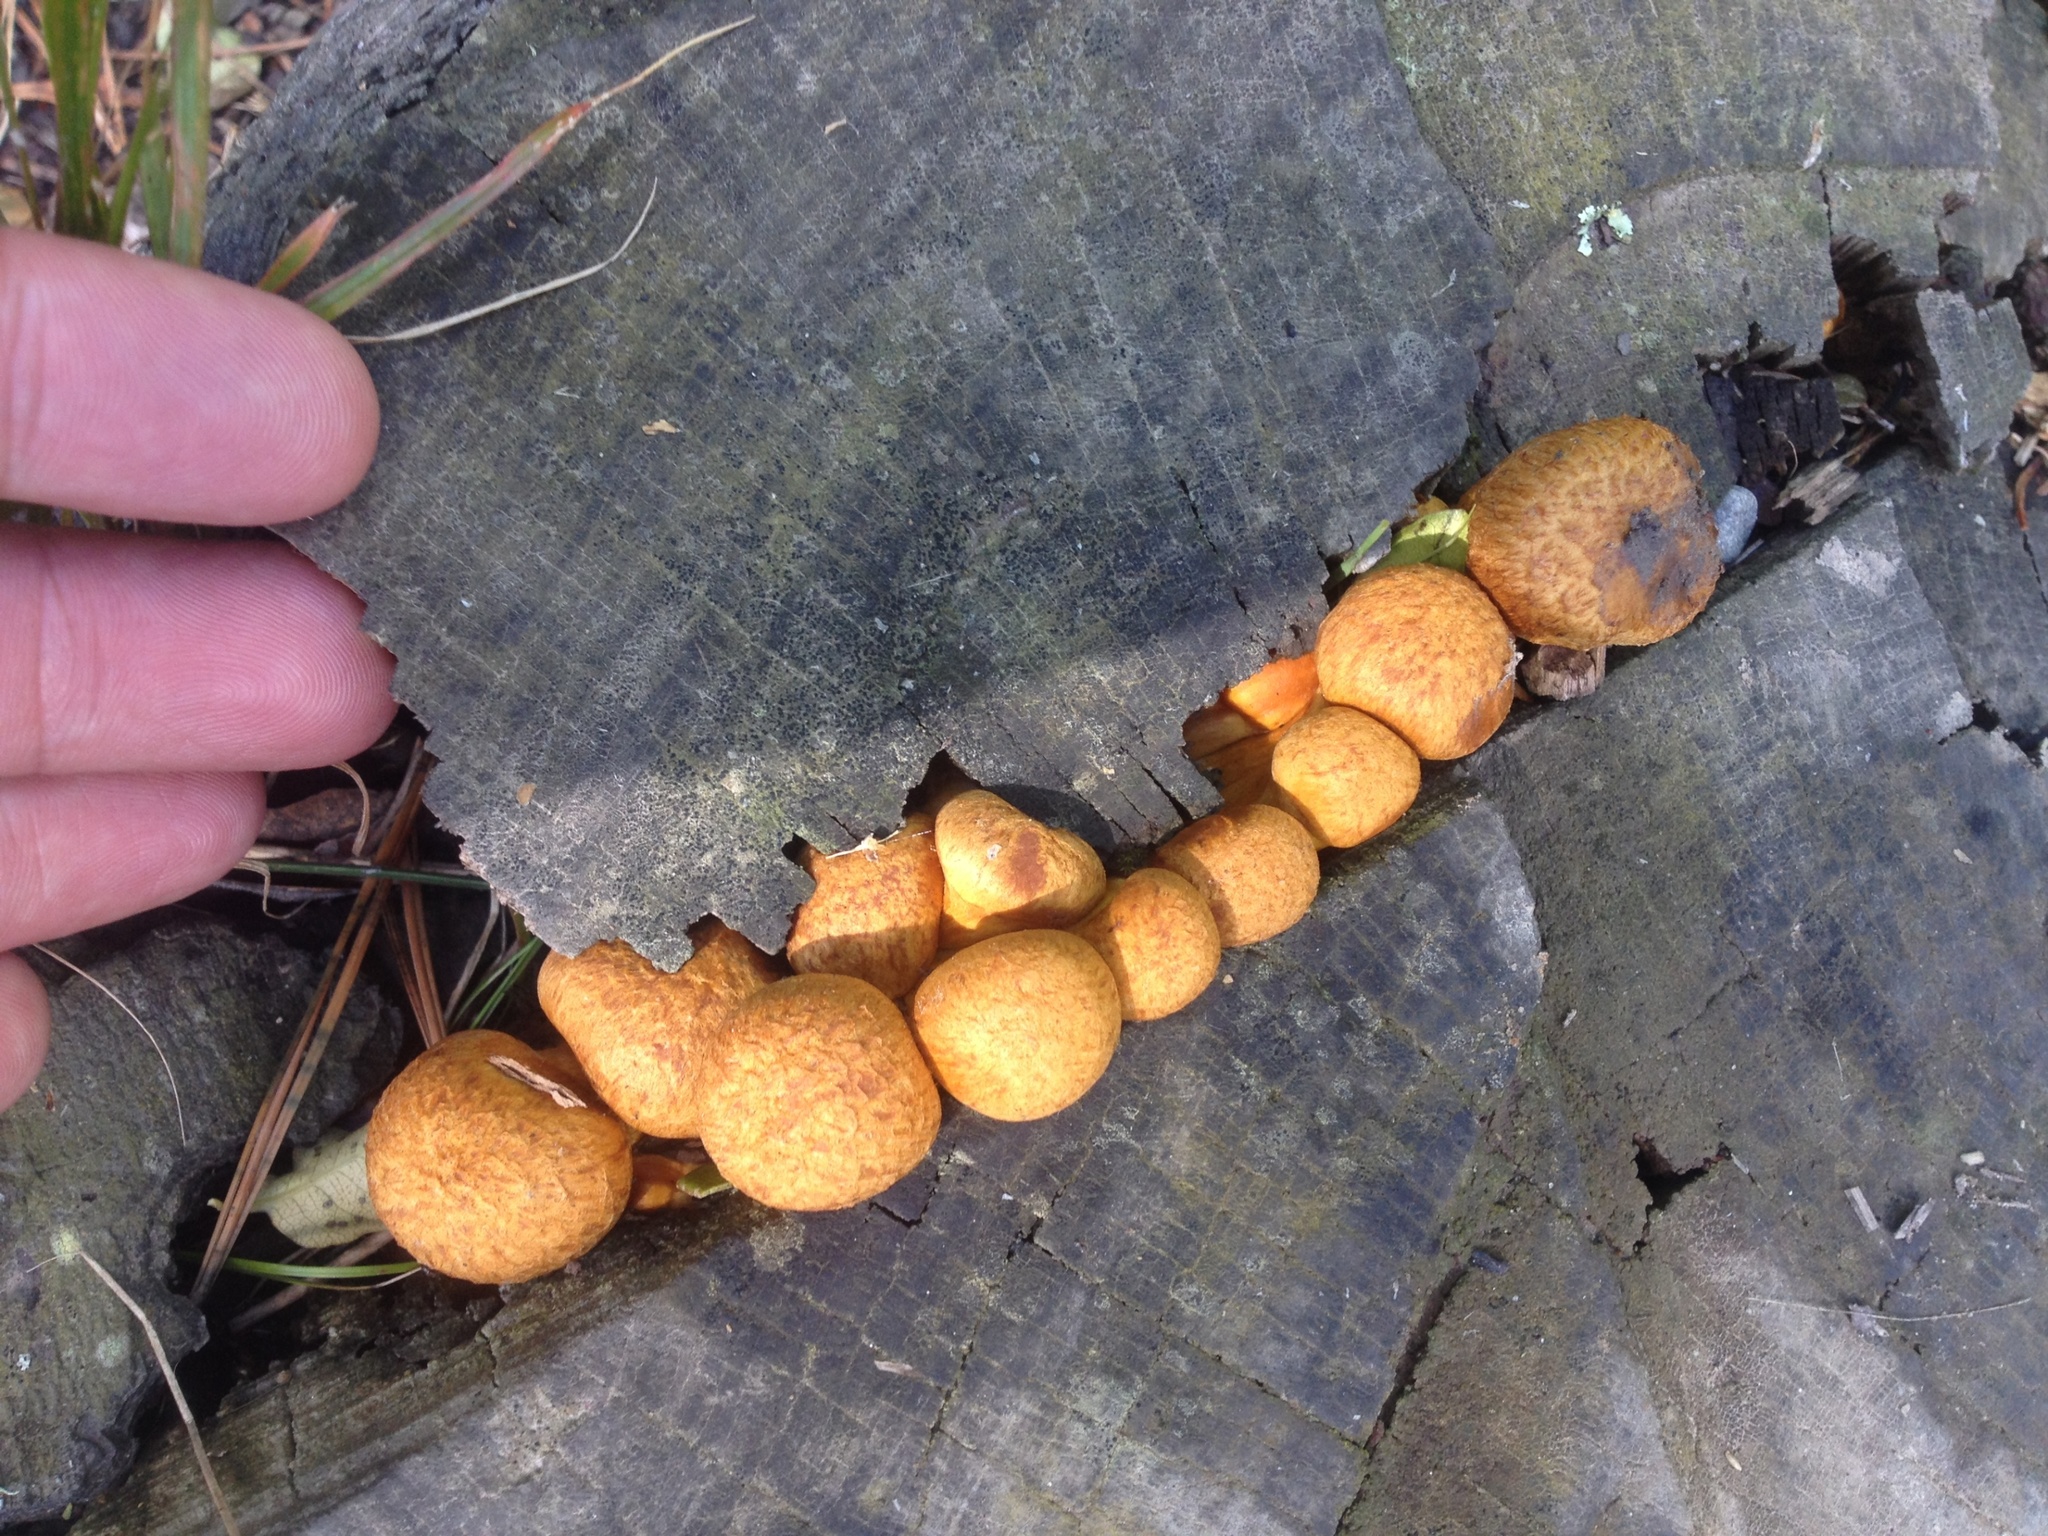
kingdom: Fungi
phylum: Basidiomycota
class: Agaricomycetes
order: Agaricales
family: Hymenogastraceae
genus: Gymnopilus
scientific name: Gymnopilus junonius
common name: Spectacular rustgill
